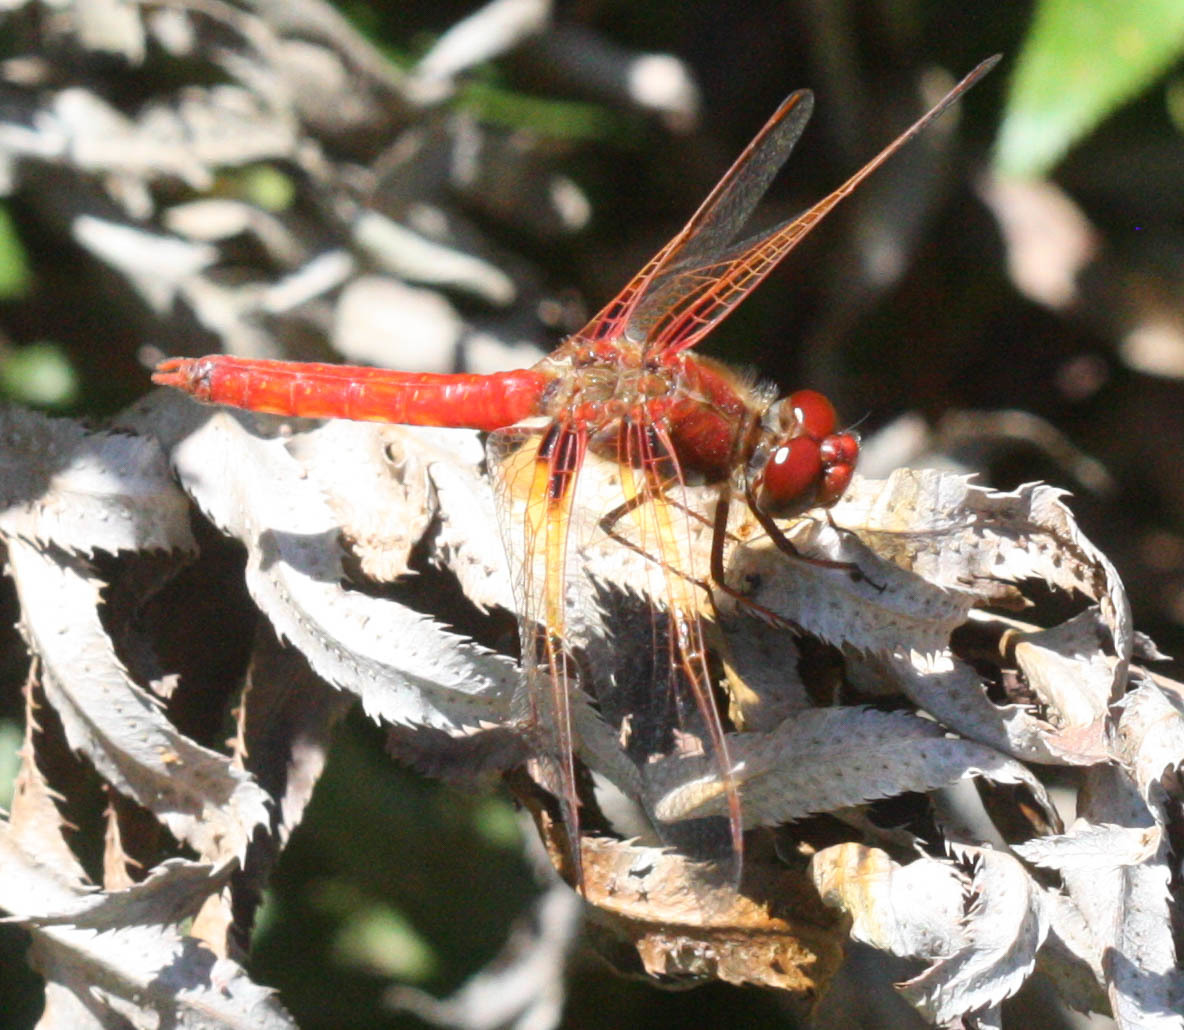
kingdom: Animalia
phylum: Arthropoda
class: Insecta
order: Odonata
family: Libellulidae
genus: Sympetrum
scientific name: Sympetrum illotum
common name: Cardinal meadowhawk
